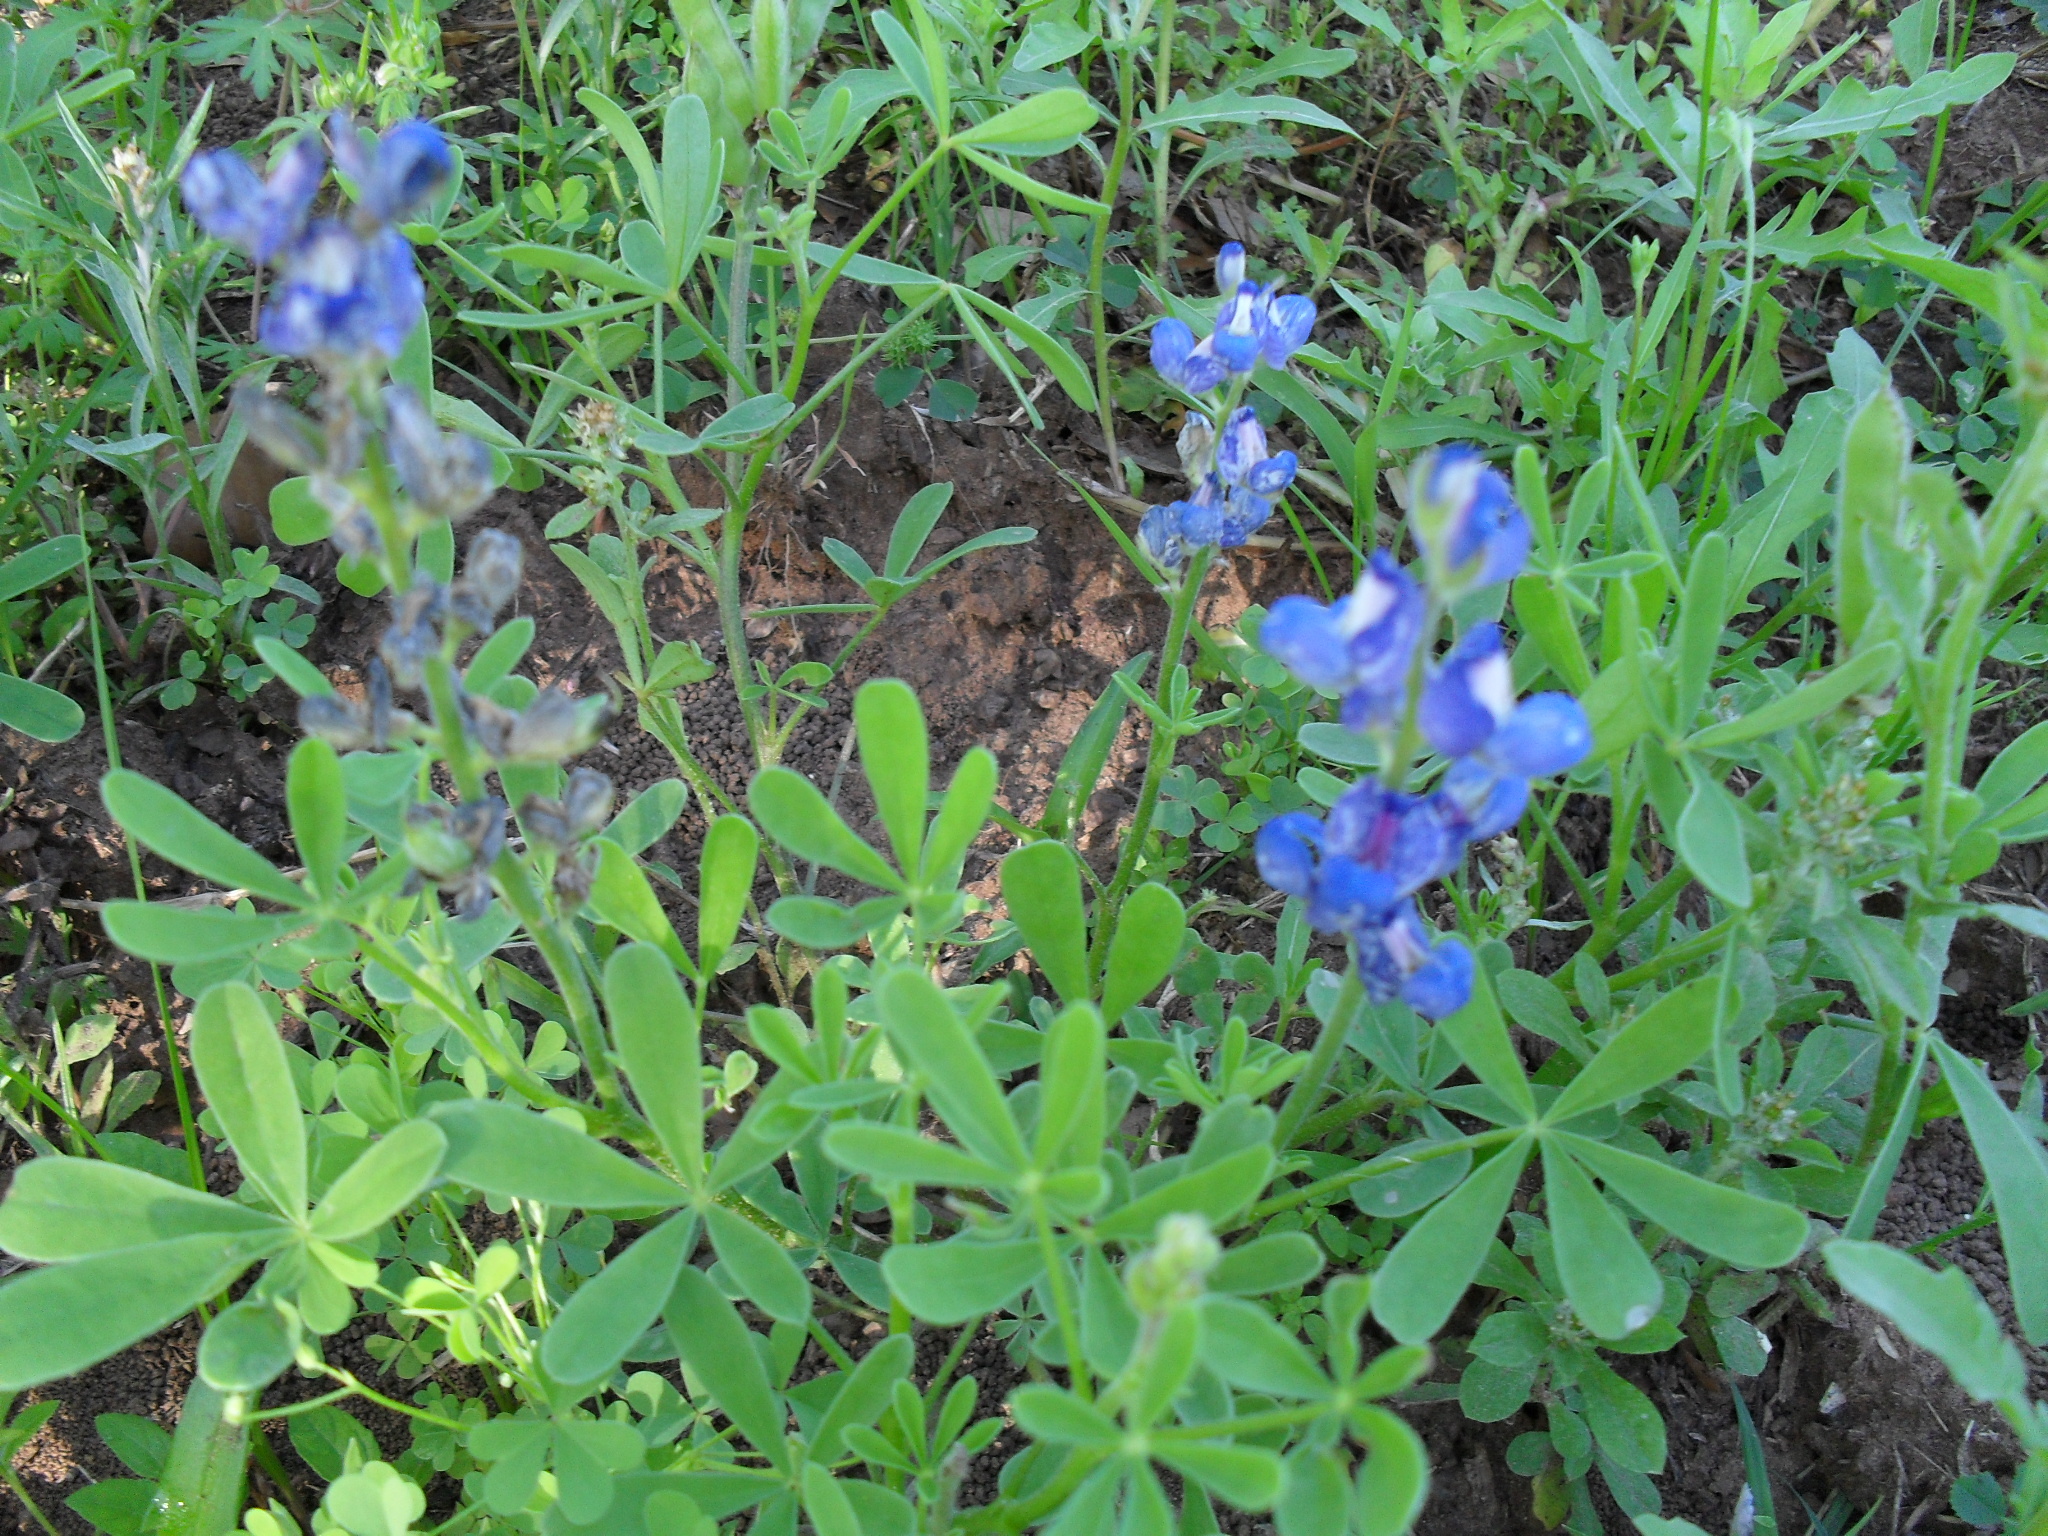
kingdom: Plantae
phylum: Tracheophyta
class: Magnoliopsida
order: Fabales
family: Fabaceae
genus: Lupinus
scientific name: Lupinus subcarnosus
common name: Texas bluebonnet
